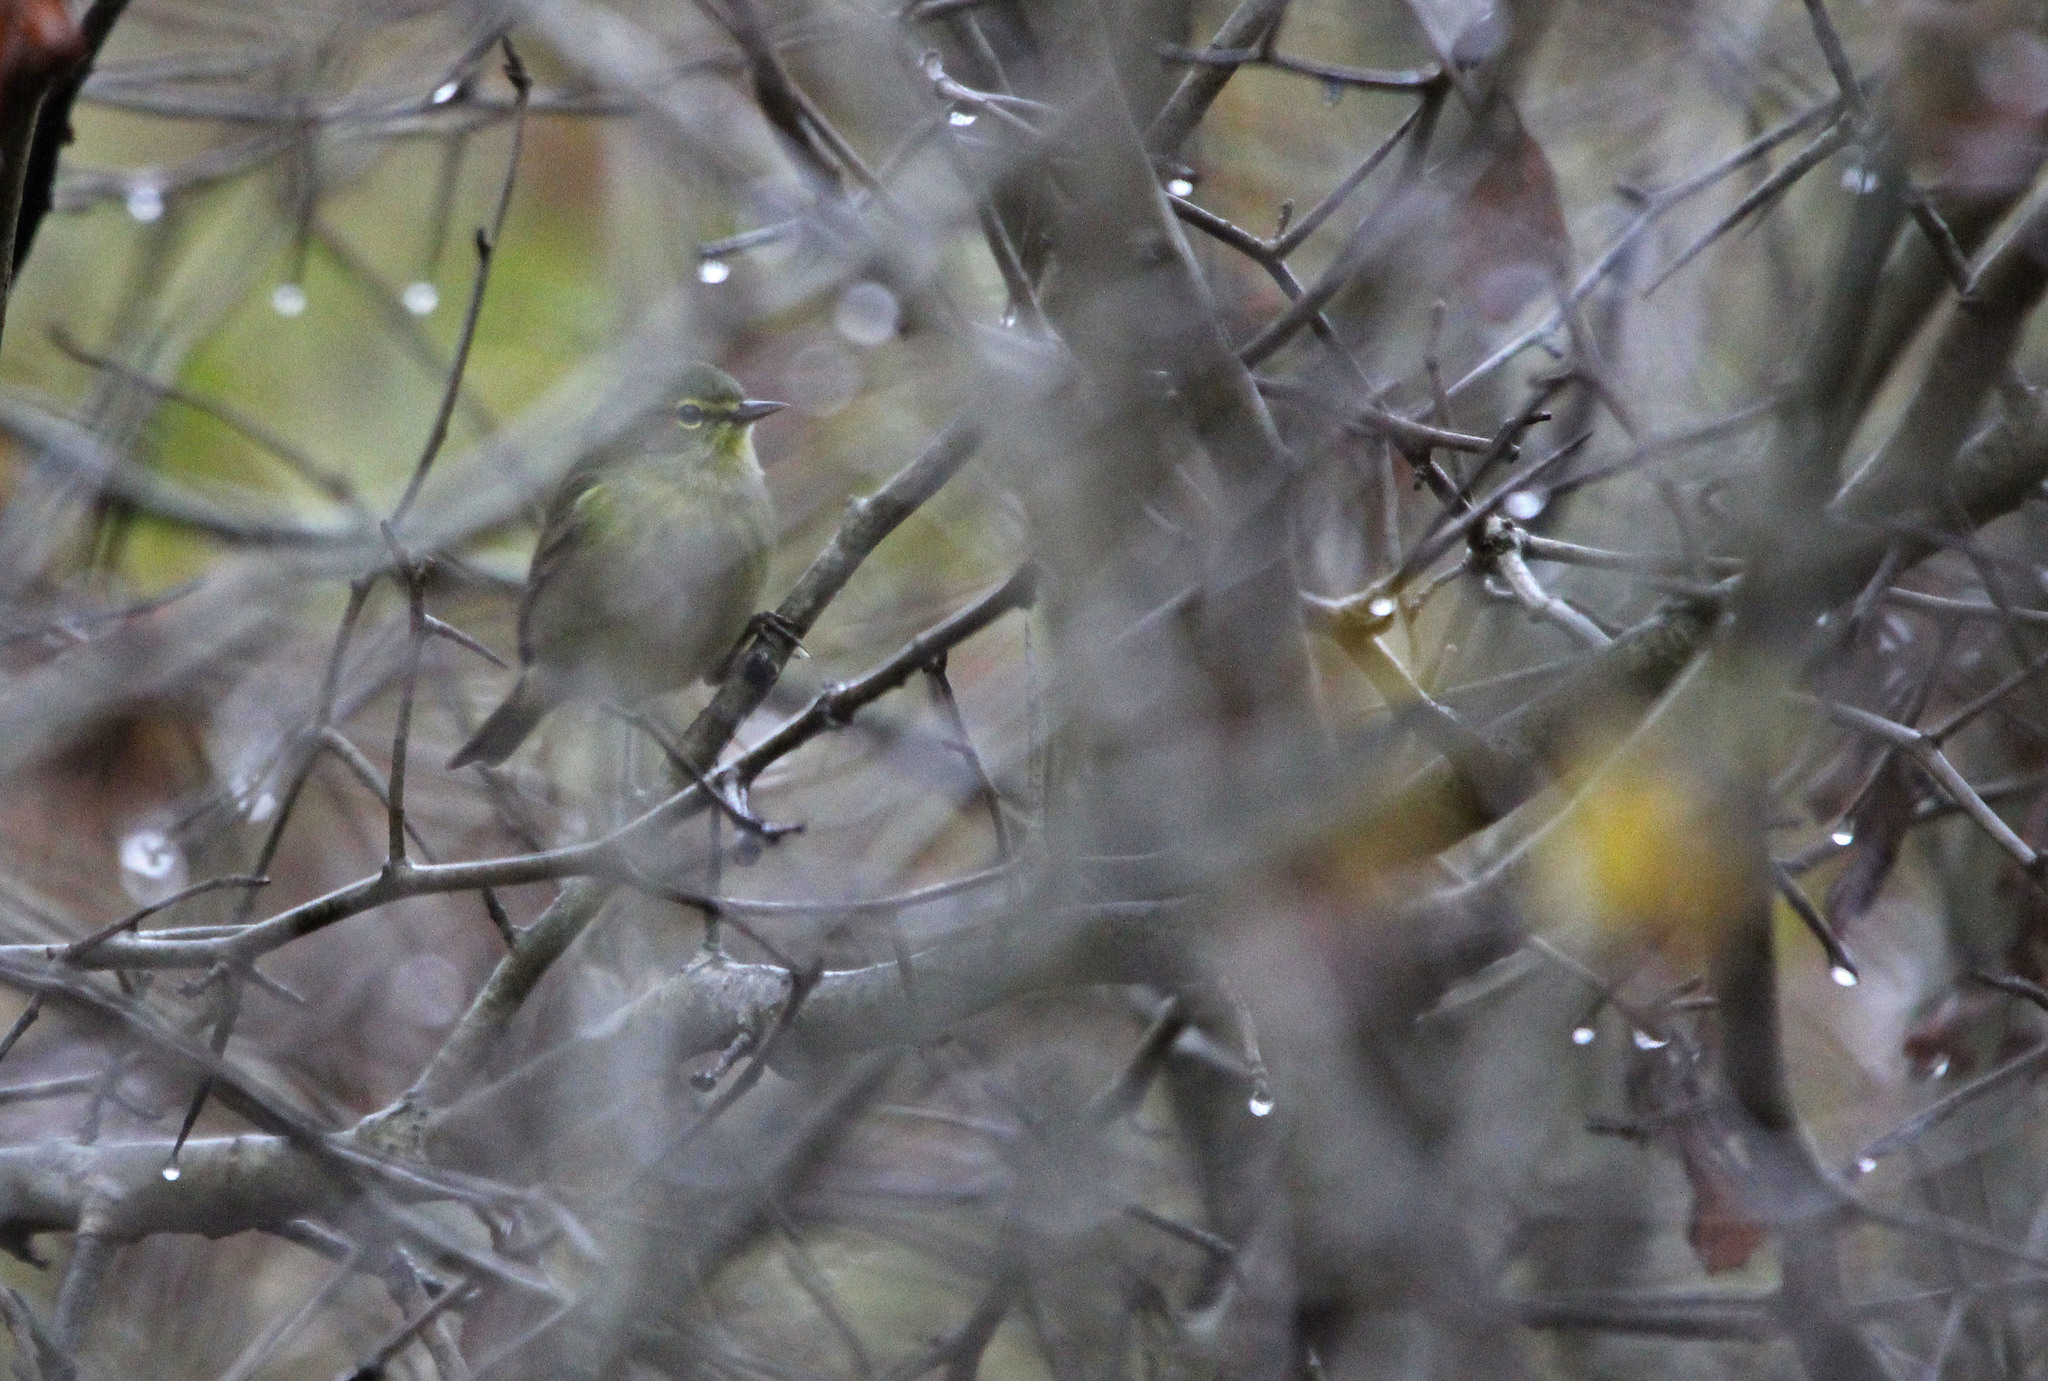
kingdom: Animalia
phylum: Chordata
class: Aves
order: Passeriformes
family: Parulidae
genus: Leiothlypis
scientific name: Leiothlypis celata
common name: Orange-crowned warbler
